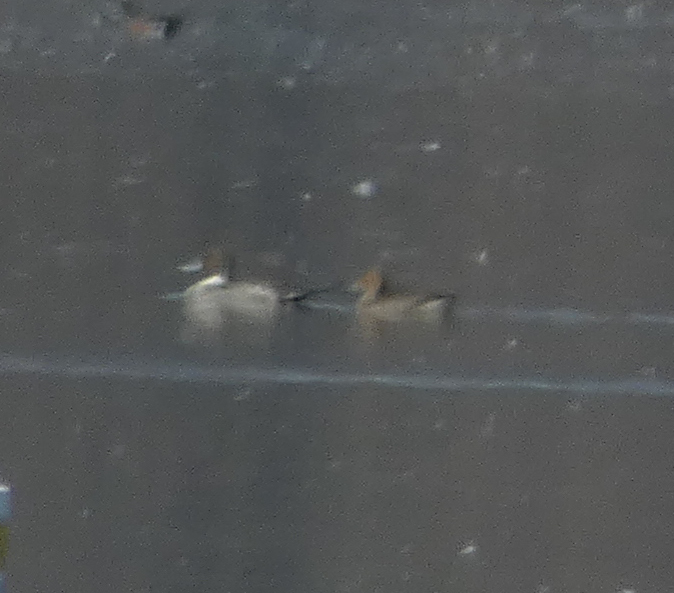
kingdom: Animalia
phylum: Chordata
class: Aves
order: Anseriformes
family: Anatidae
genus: Anas
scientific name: Anas acuta
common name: Northern pintail
